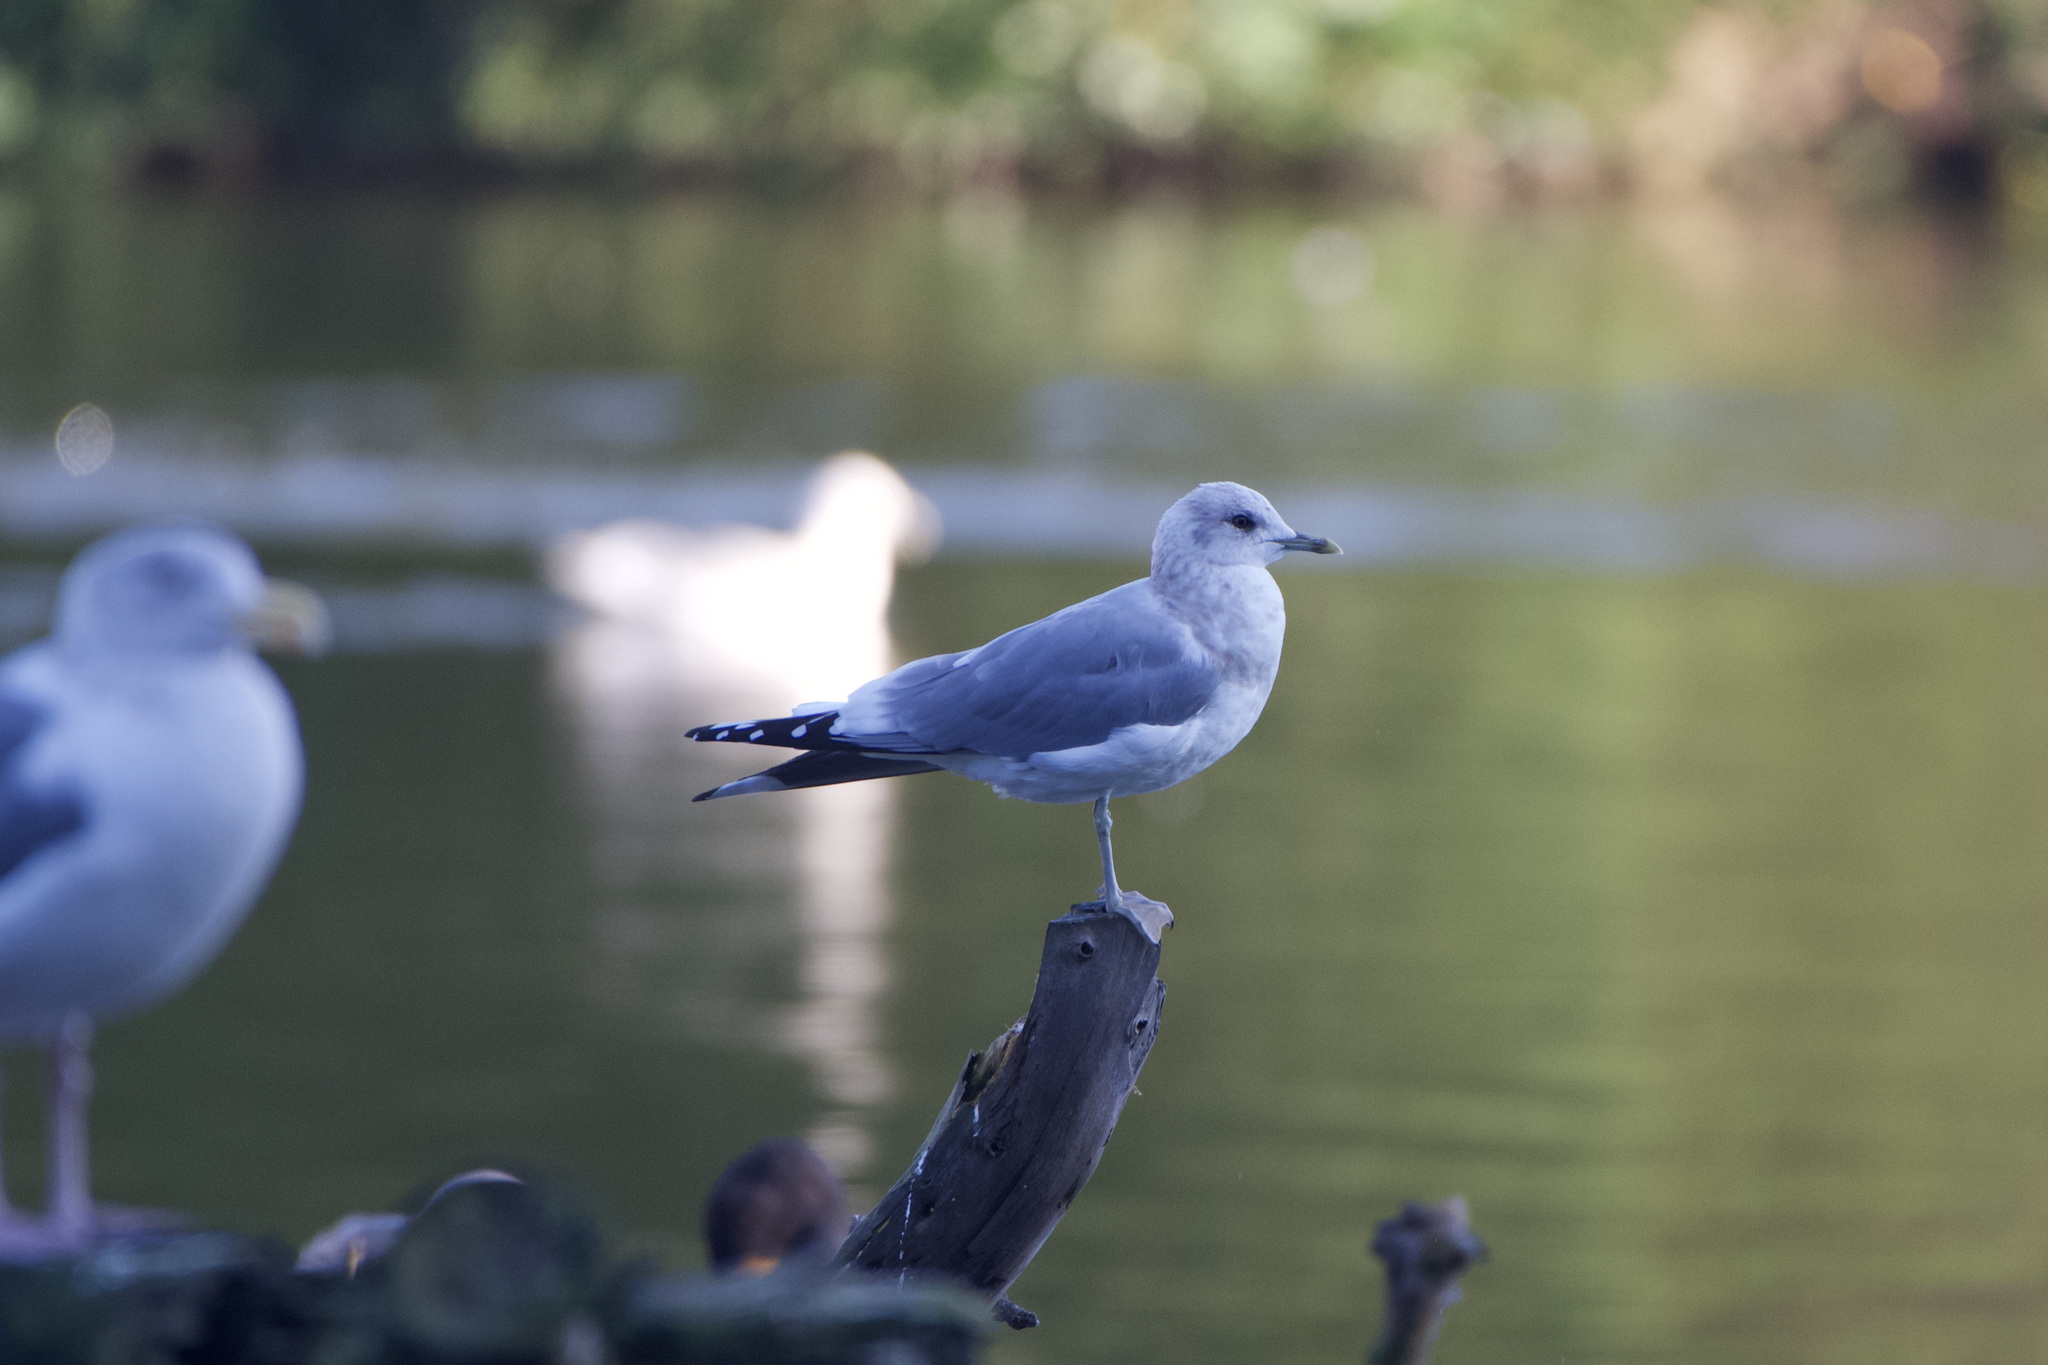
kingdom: Animalia
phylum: Chordata
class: Aves
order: Charadriiformes
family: Laridae
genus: Larus
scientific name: Larus brachyrhynchus
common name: Short-billed gull
